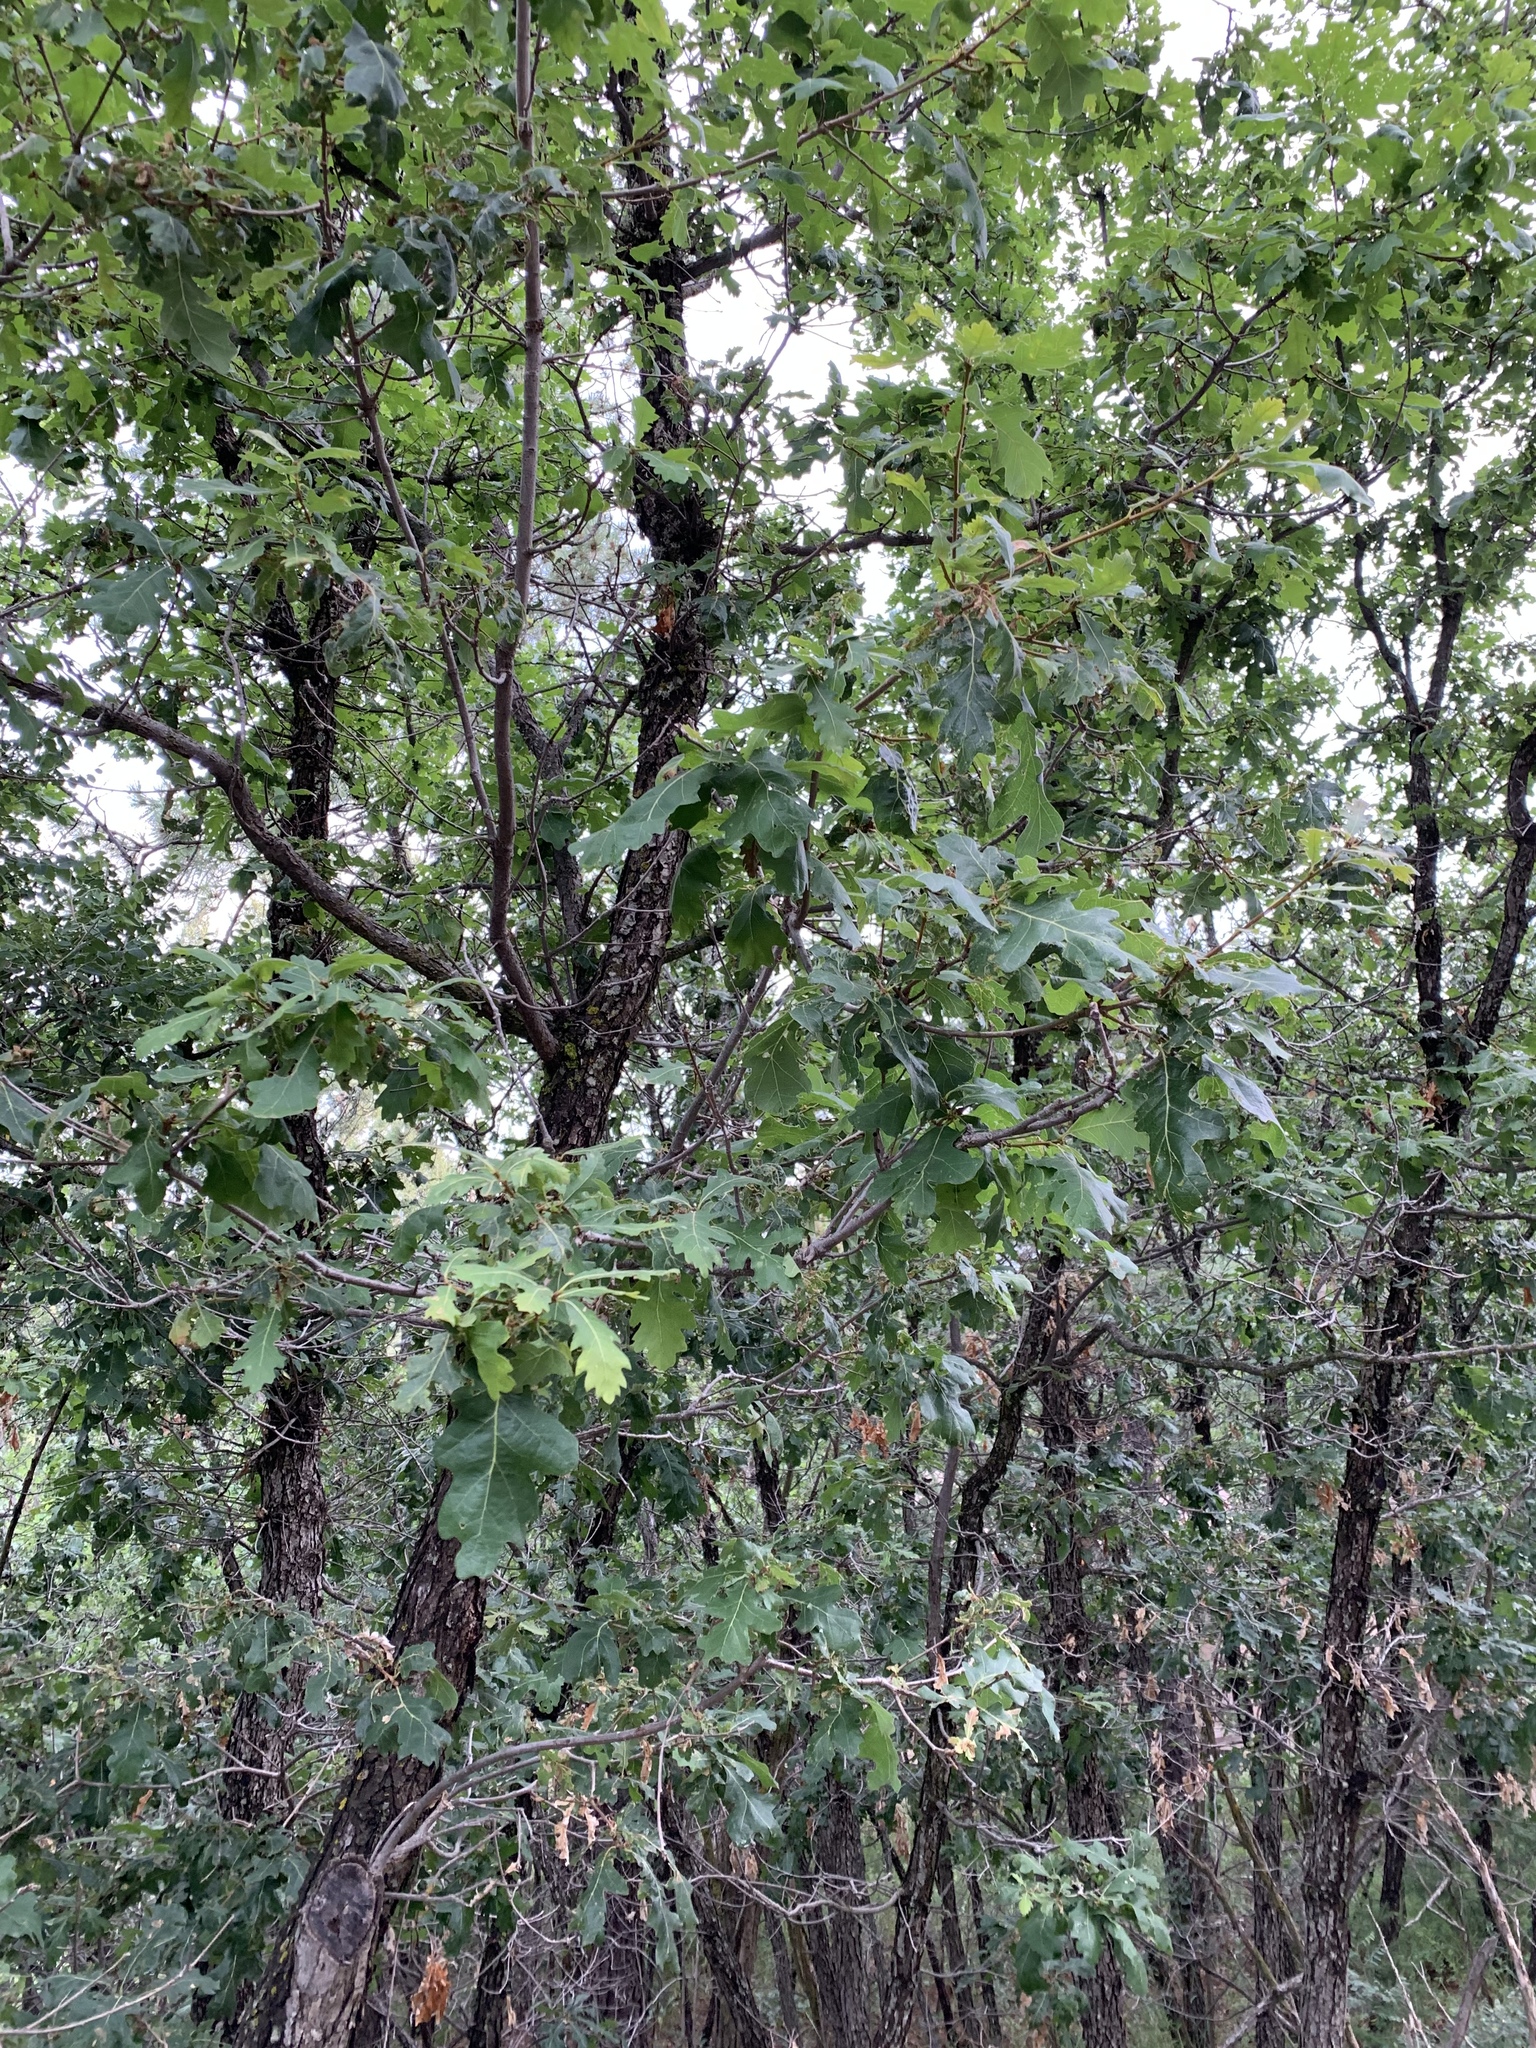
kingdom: Plantae
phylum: Tracheophyta
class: Magnoliopsida
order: Fagales
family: Fagaceae
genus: Quercus
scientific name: Quercus gambelii
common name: Gambel oak
